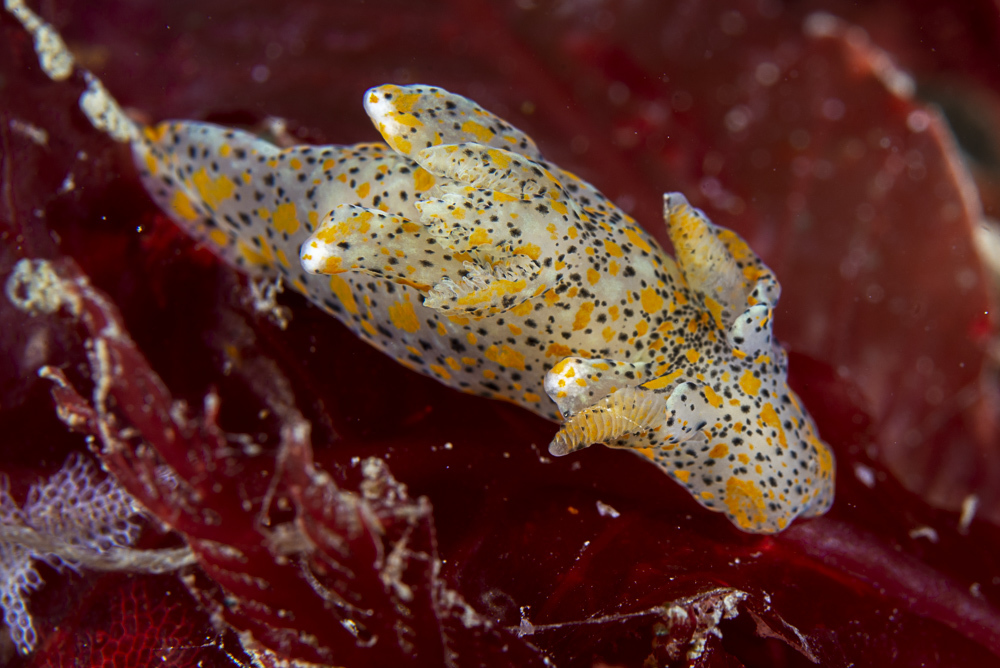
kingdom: Animalia
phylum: Mollusca
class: Gastropoda
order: Nudibranchia
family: Polyceridae
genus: Thecacera
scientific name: Thecacera pennigera
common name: Thecacera
